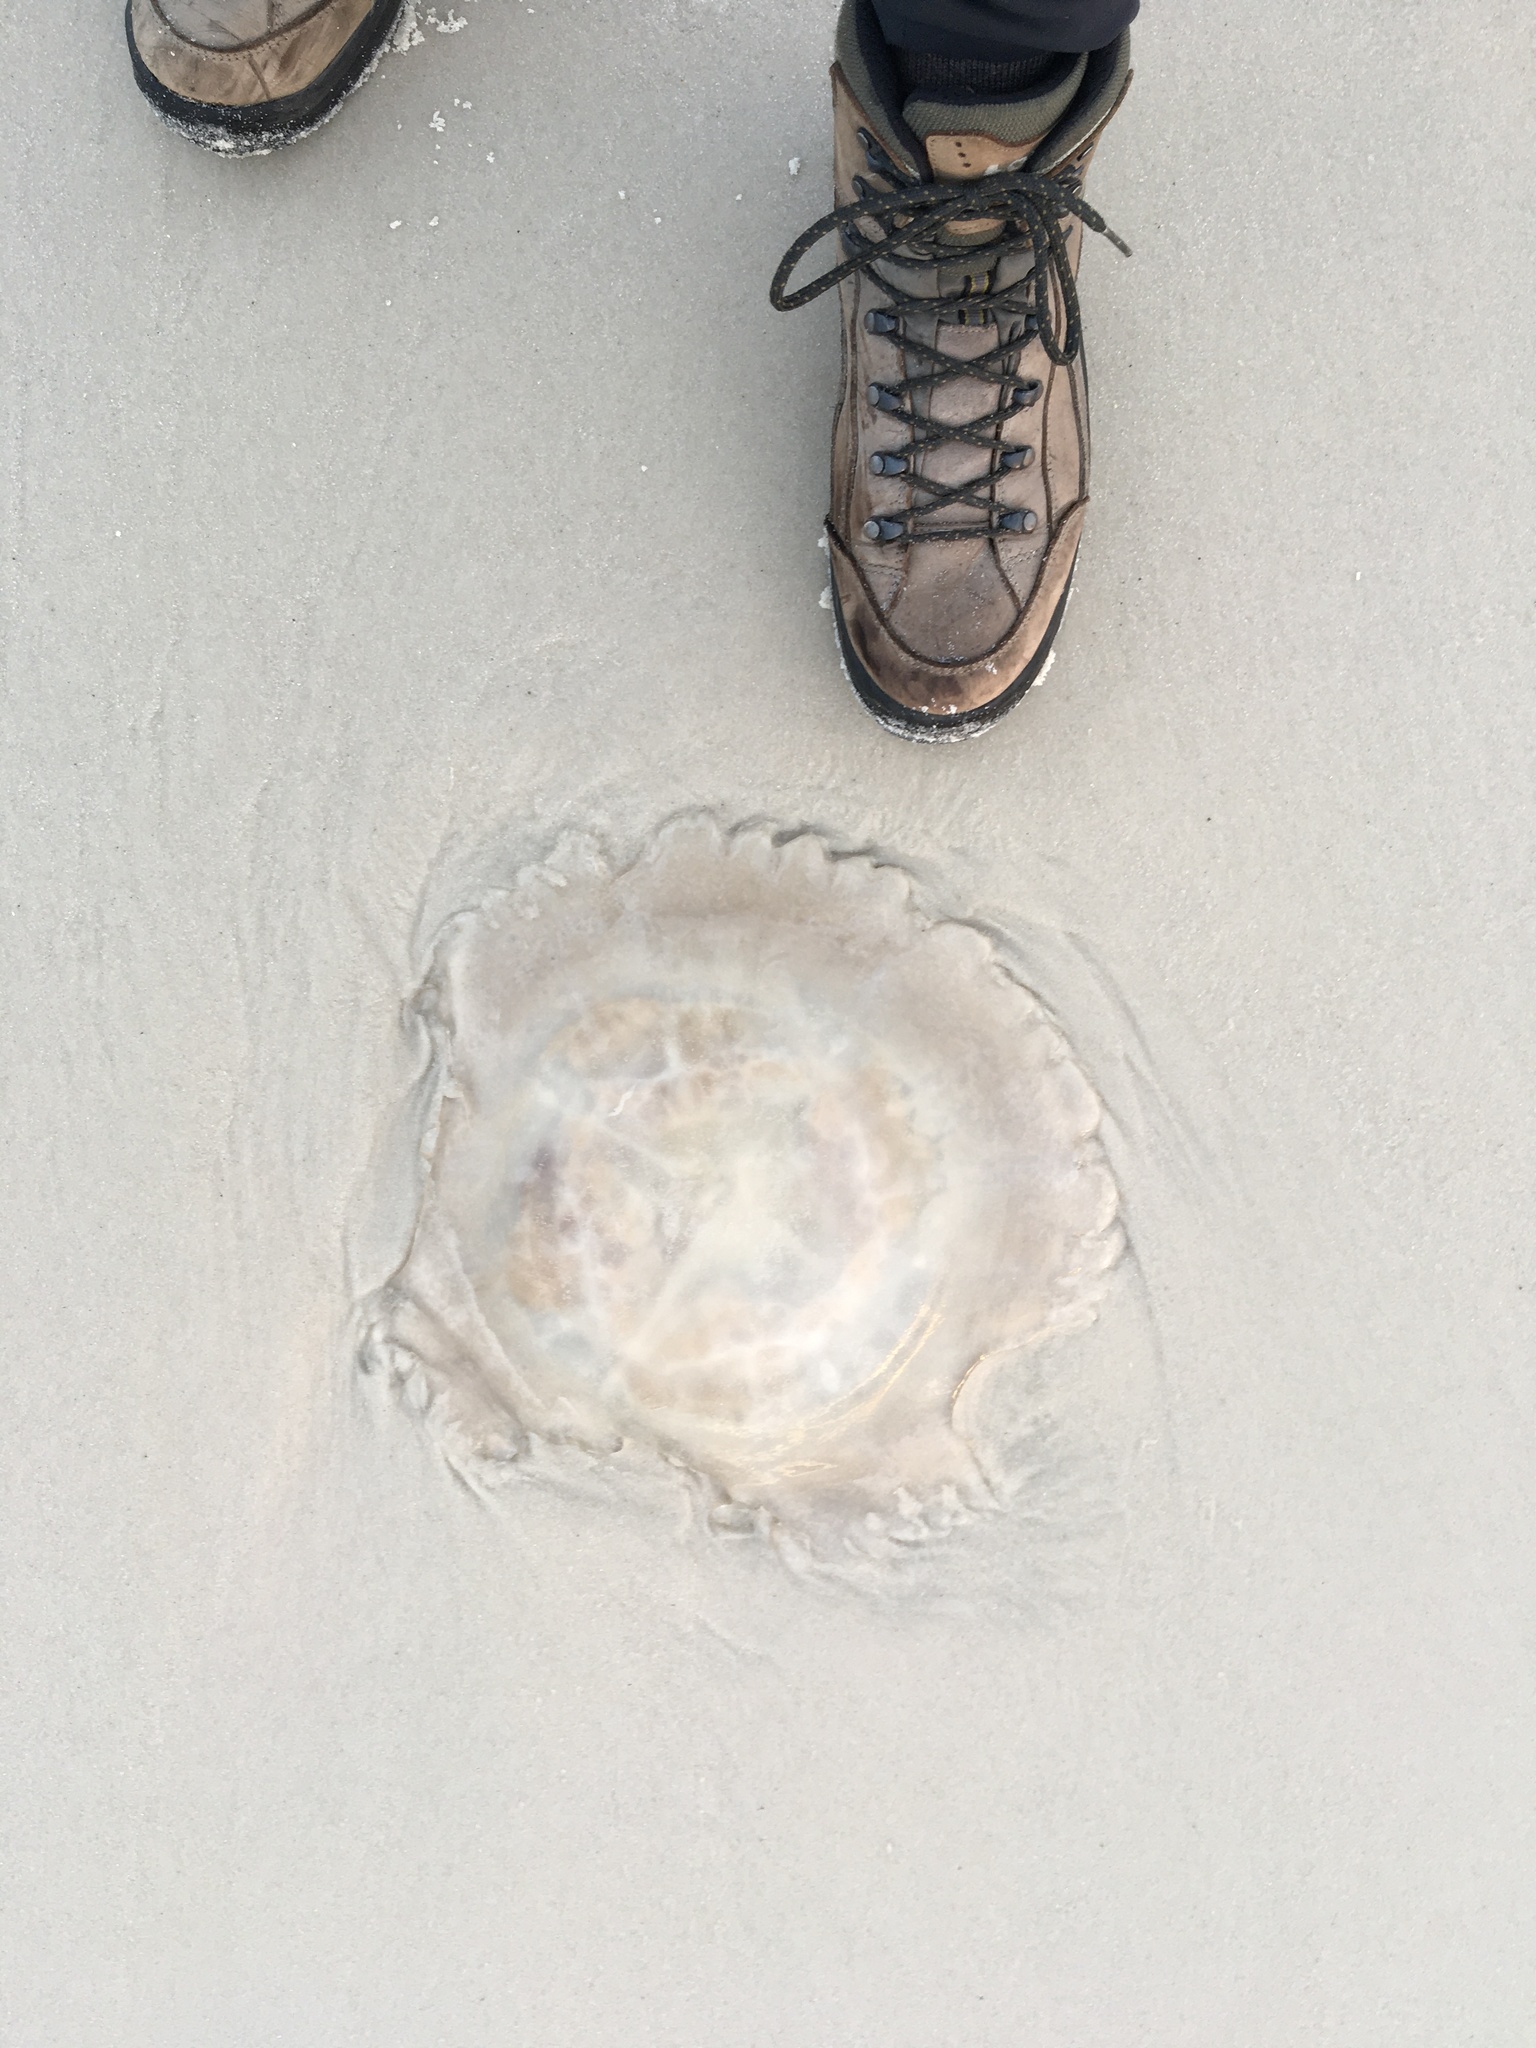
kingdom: Animalia
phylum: Cnidaria
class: Scyphozoa
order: Rhizostomeae
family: Rhizostomatidae
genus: Rhopilema
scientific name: Rhopilema verrilli
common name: Mushroom cap jellyfish
